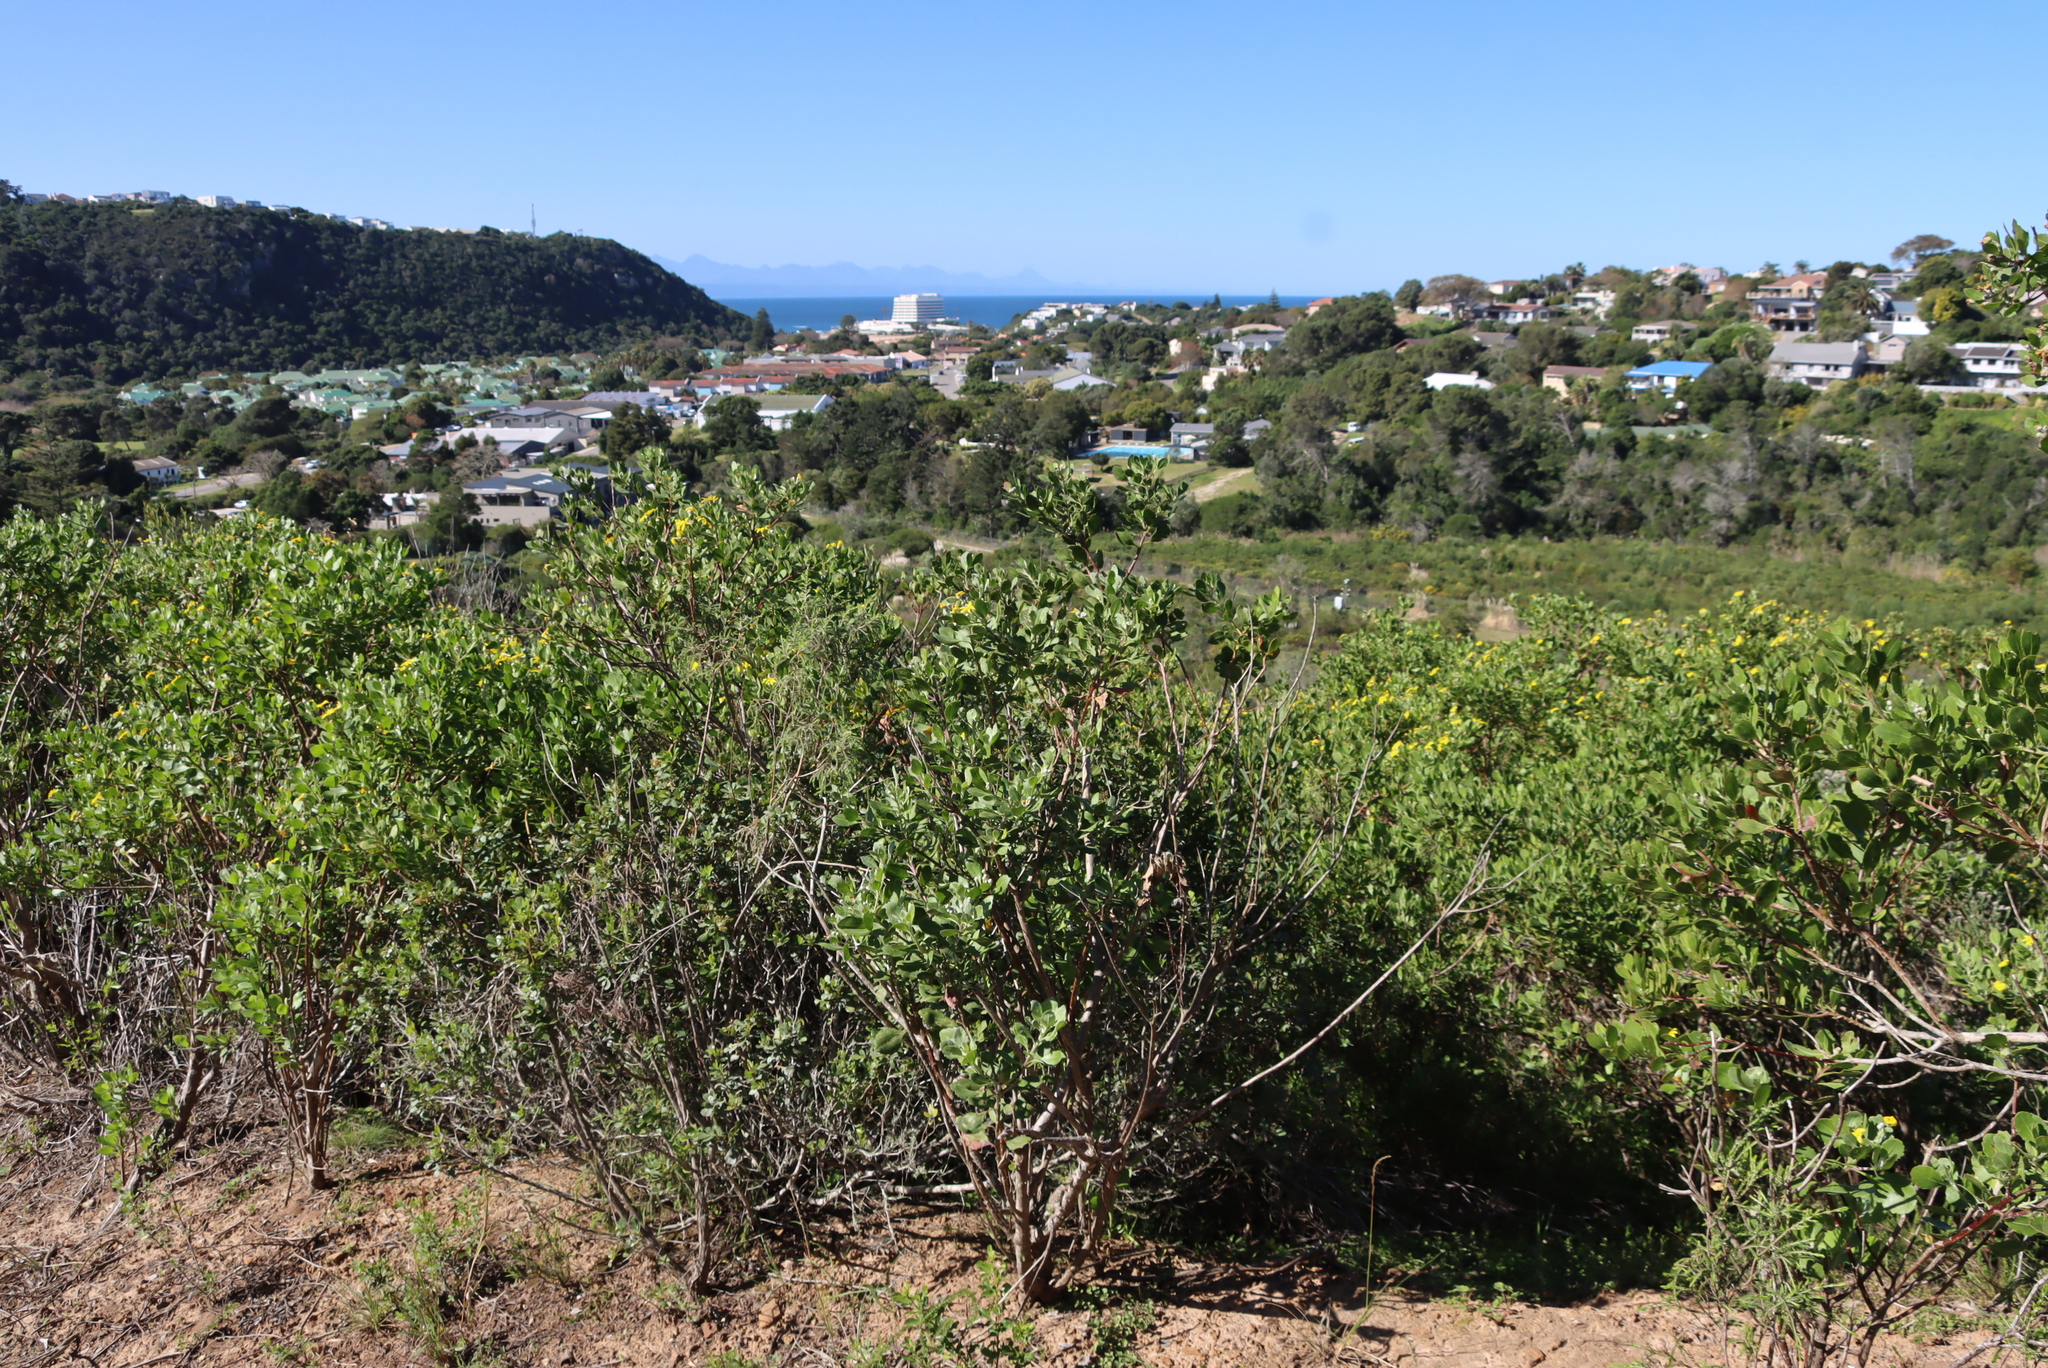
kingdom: Plantae
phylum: Tracheophyta
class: Magnoliopsida
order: Asterales
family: Asteraceae
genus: Osteospermum
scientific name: Osteospermum moniliferum
